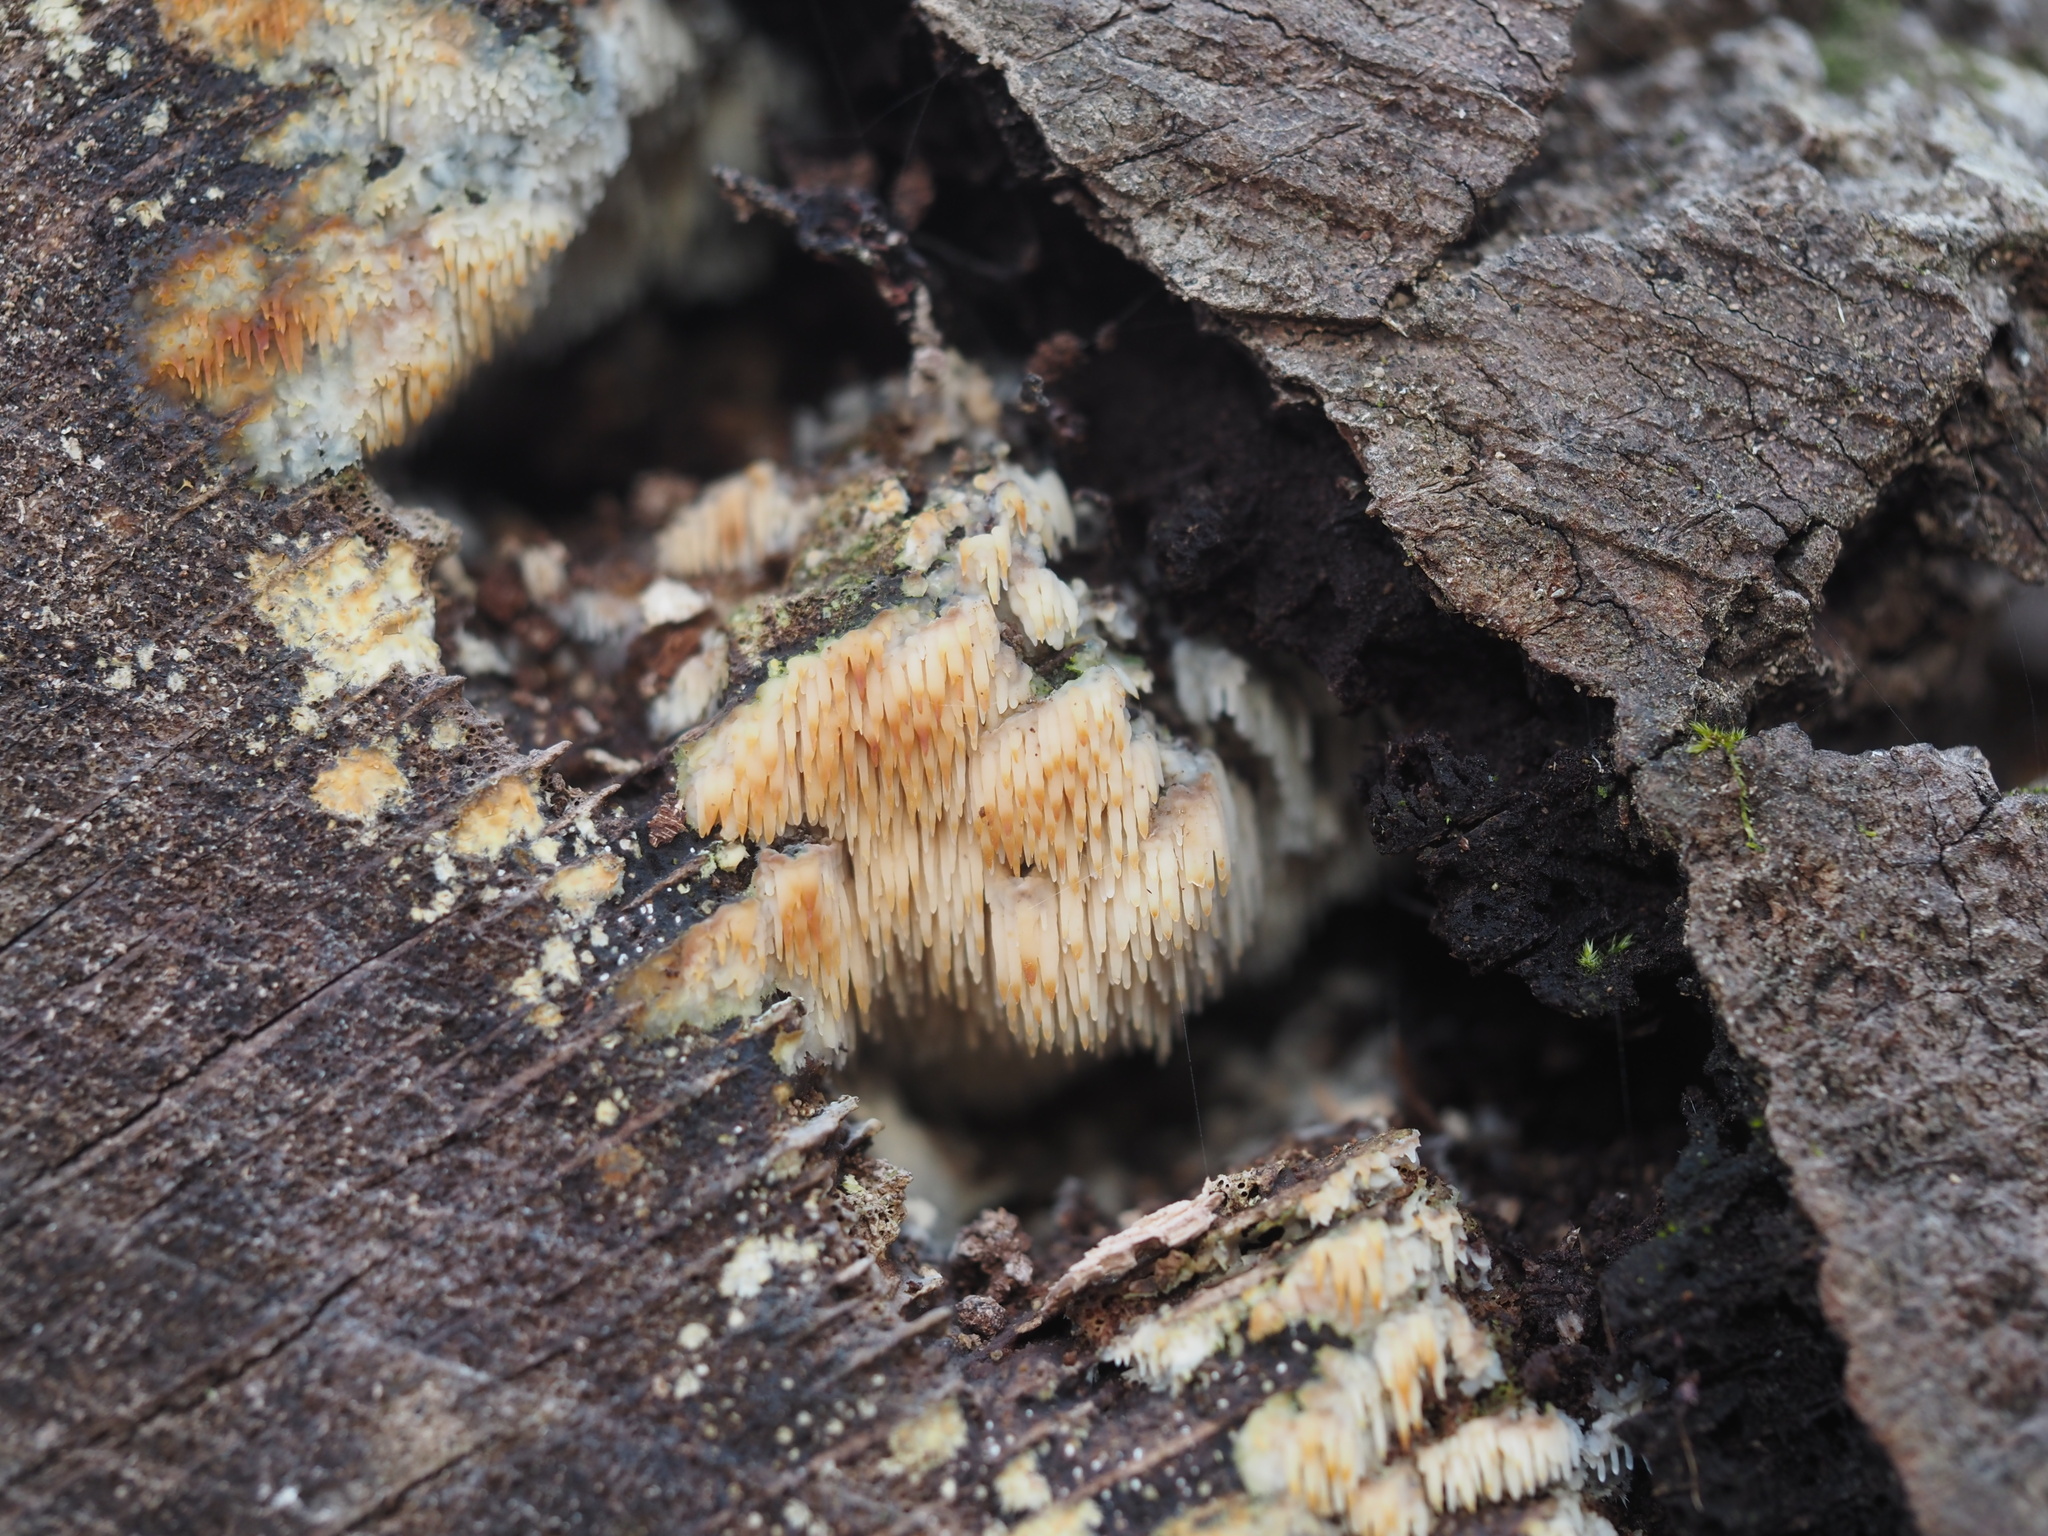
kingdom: Fungi
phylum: Basidiomycota
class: Agaricomycetes
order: Agaricales
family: Radulomycetaceae
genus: Radulomyces
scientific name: Radulomyces copelandii
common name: Asian beauty
